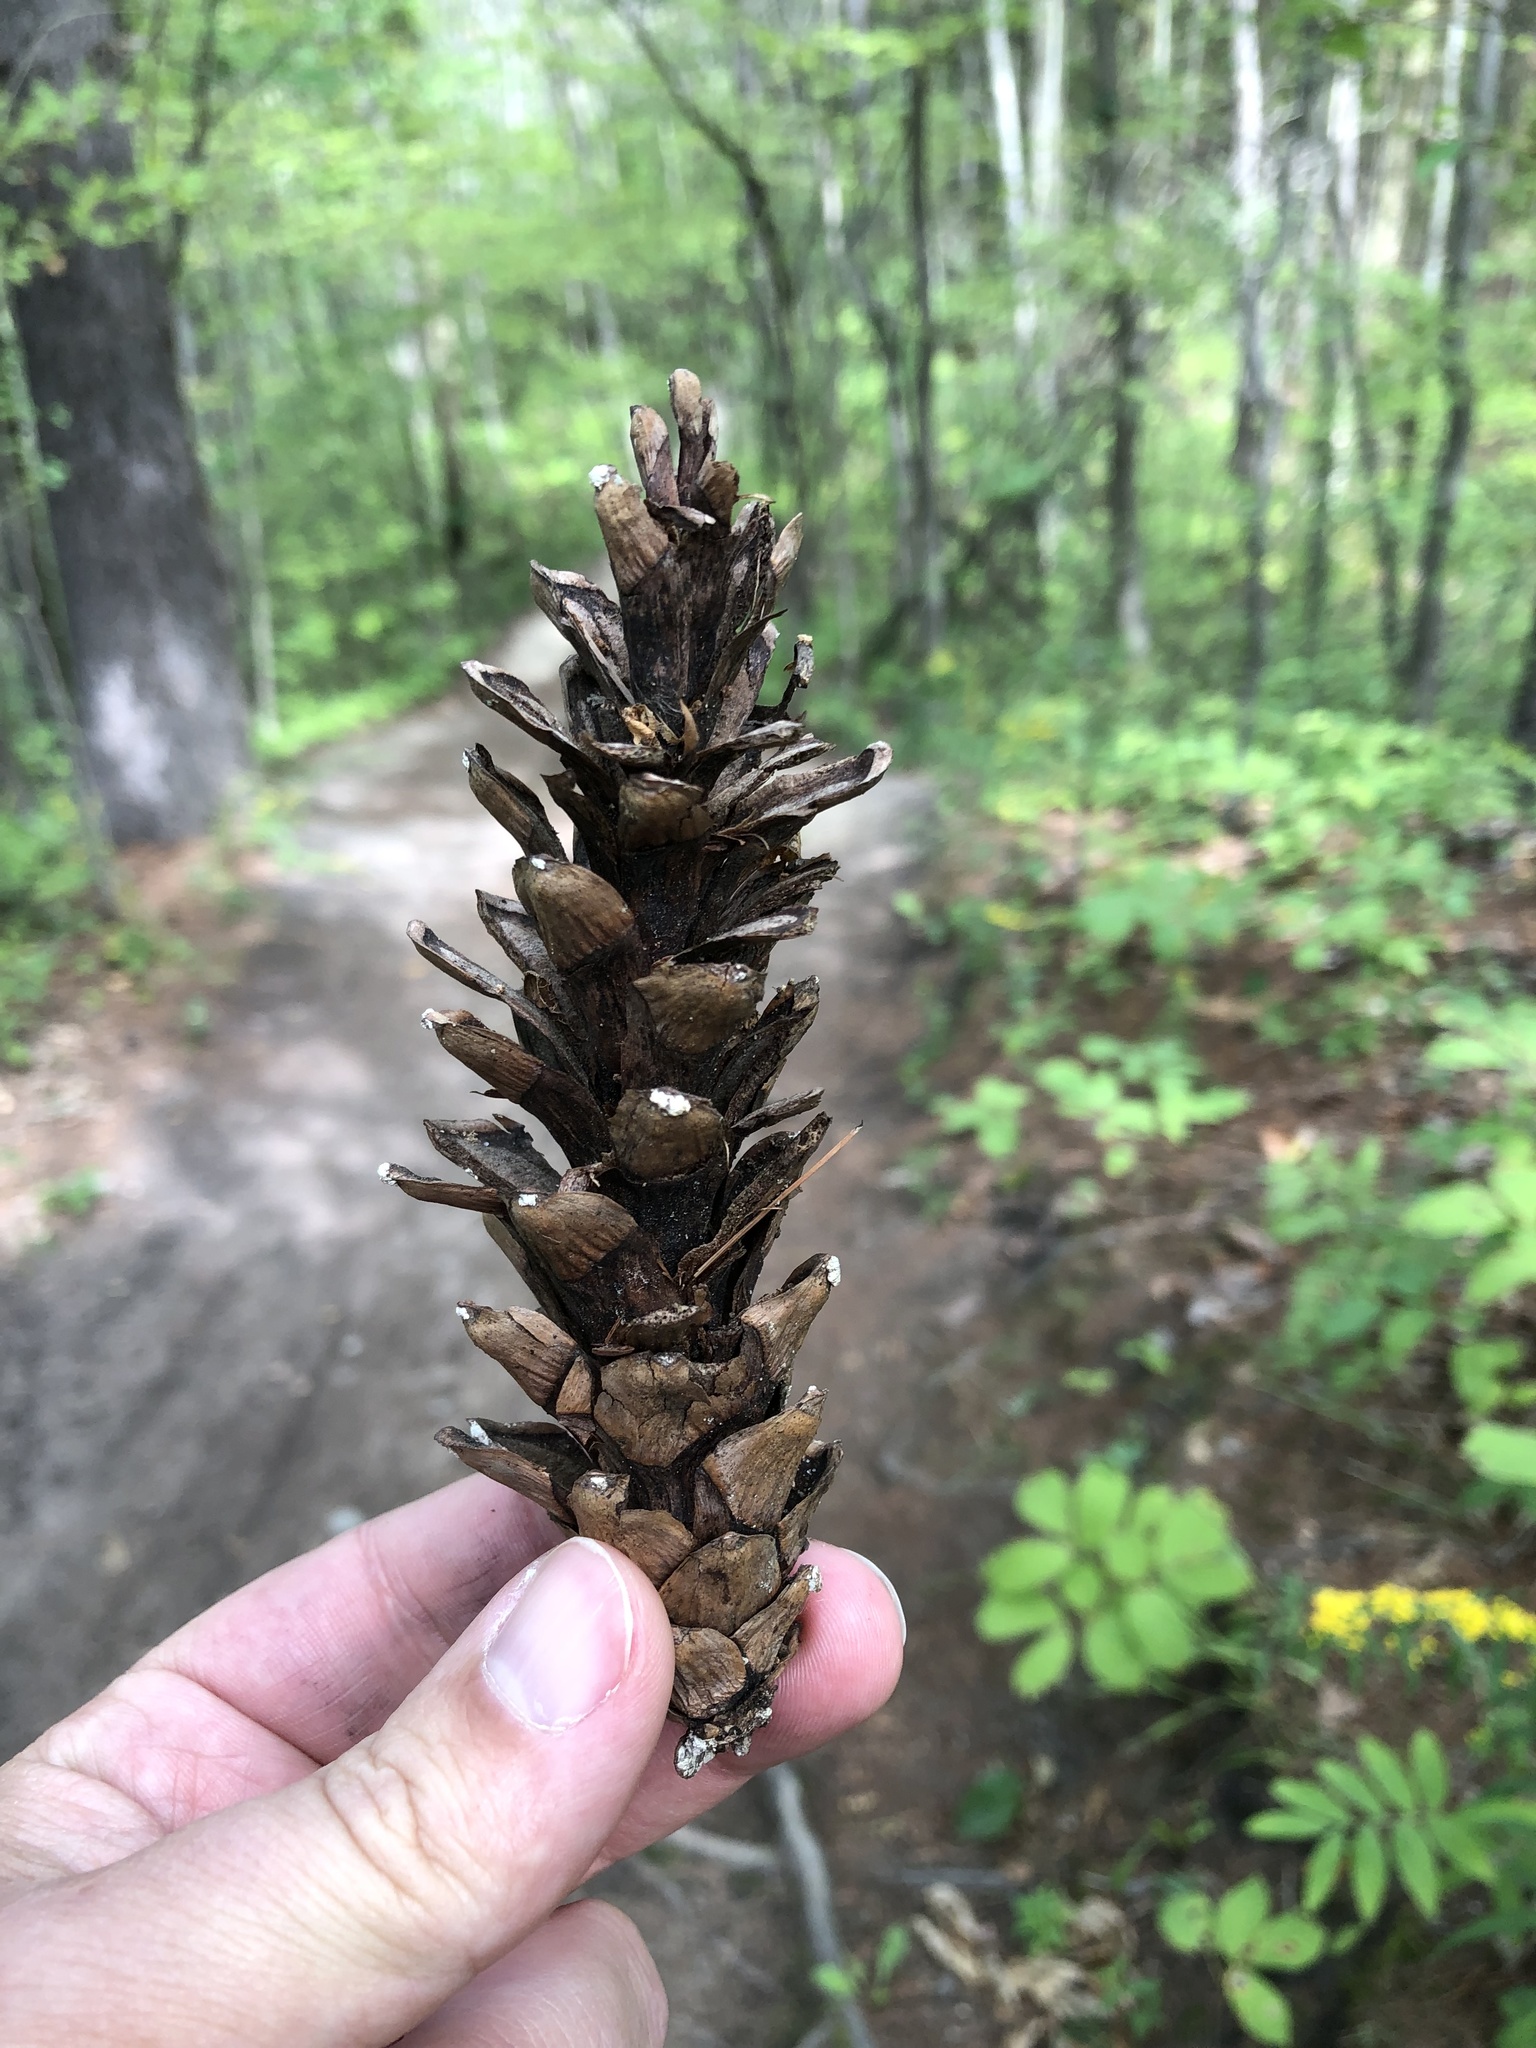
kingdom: Plantae
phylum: Tracheophyta
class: Pinopsida
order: Pinales
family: Pinaceae
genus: Pinus
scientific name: Pinus strobus
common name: Weymouth pine
